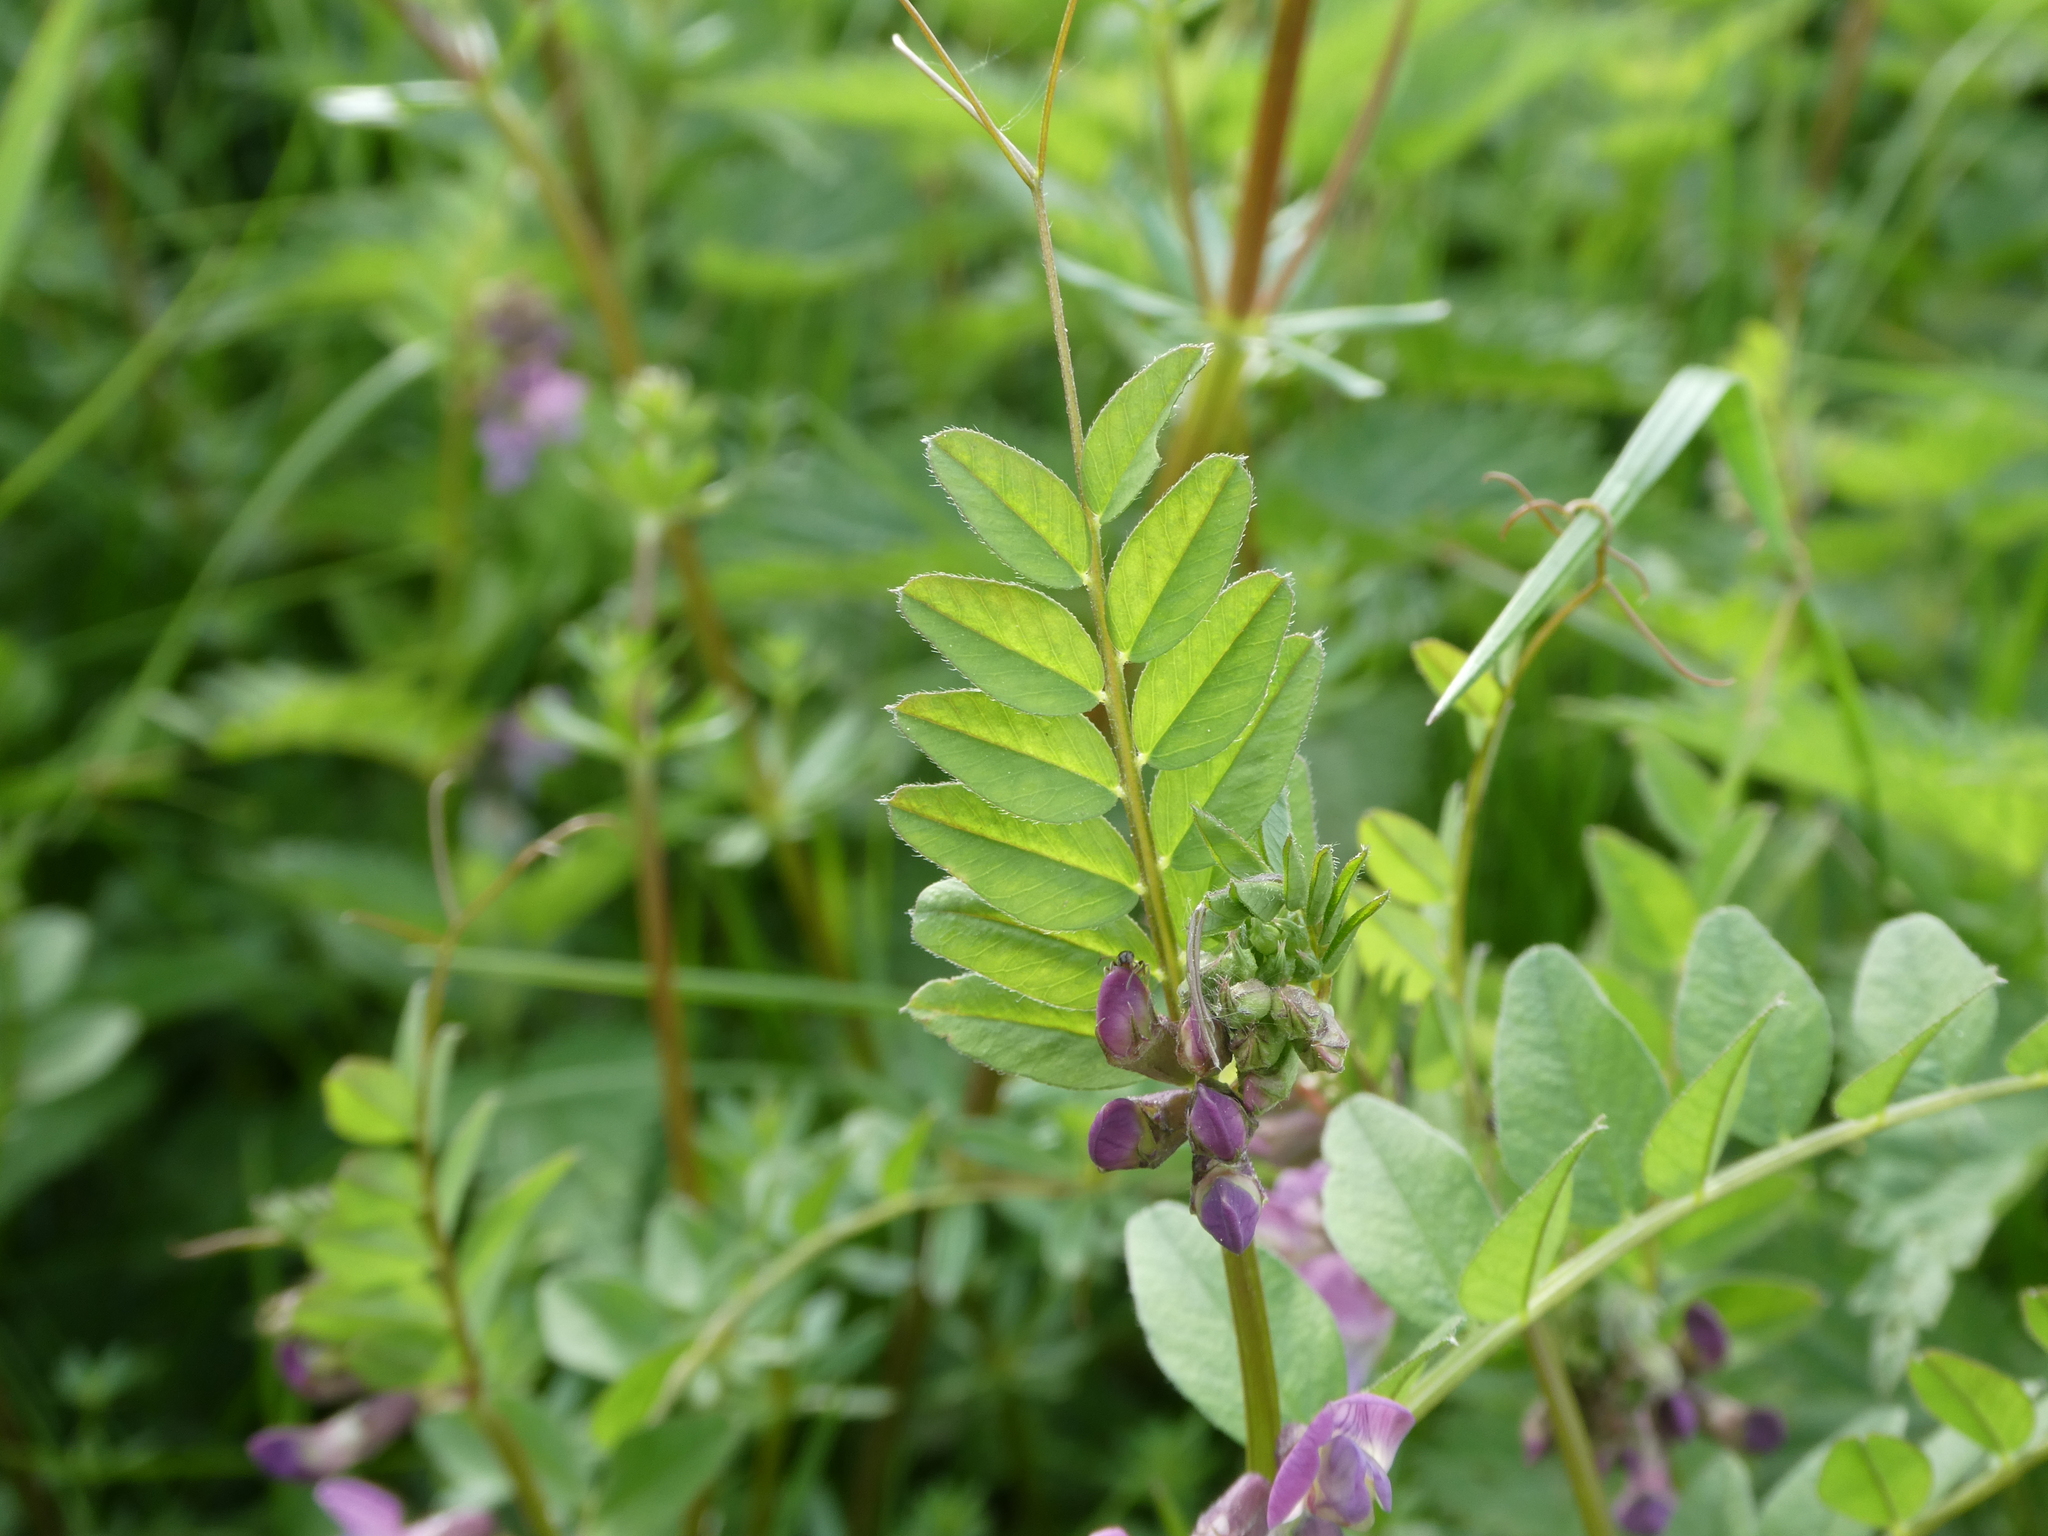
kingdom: Plantae
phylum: Tracheophyta
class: Magnoliopsida
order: Fabales
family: Fabaceae
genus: Vicia
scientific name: Vicia sepium
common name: Bush vetch
